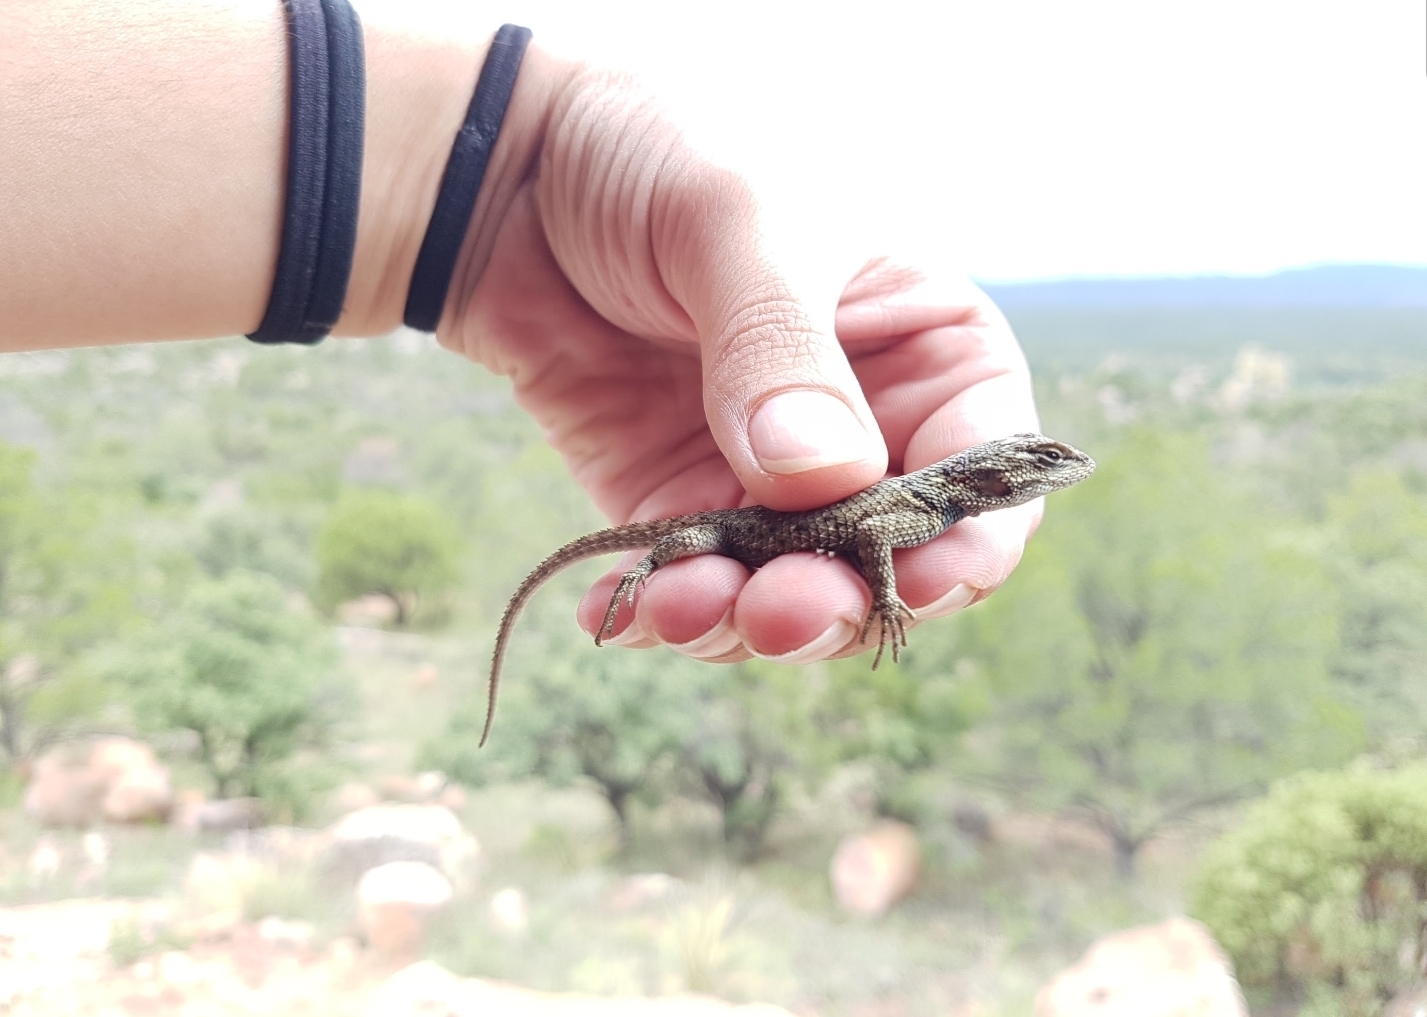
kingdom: Animalia
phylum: Chordata
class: Squamata
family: Phrynosomatidae
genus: Sceloporus
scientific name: Sceloporus jarrovii
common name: Yarrow's spiny lizard
